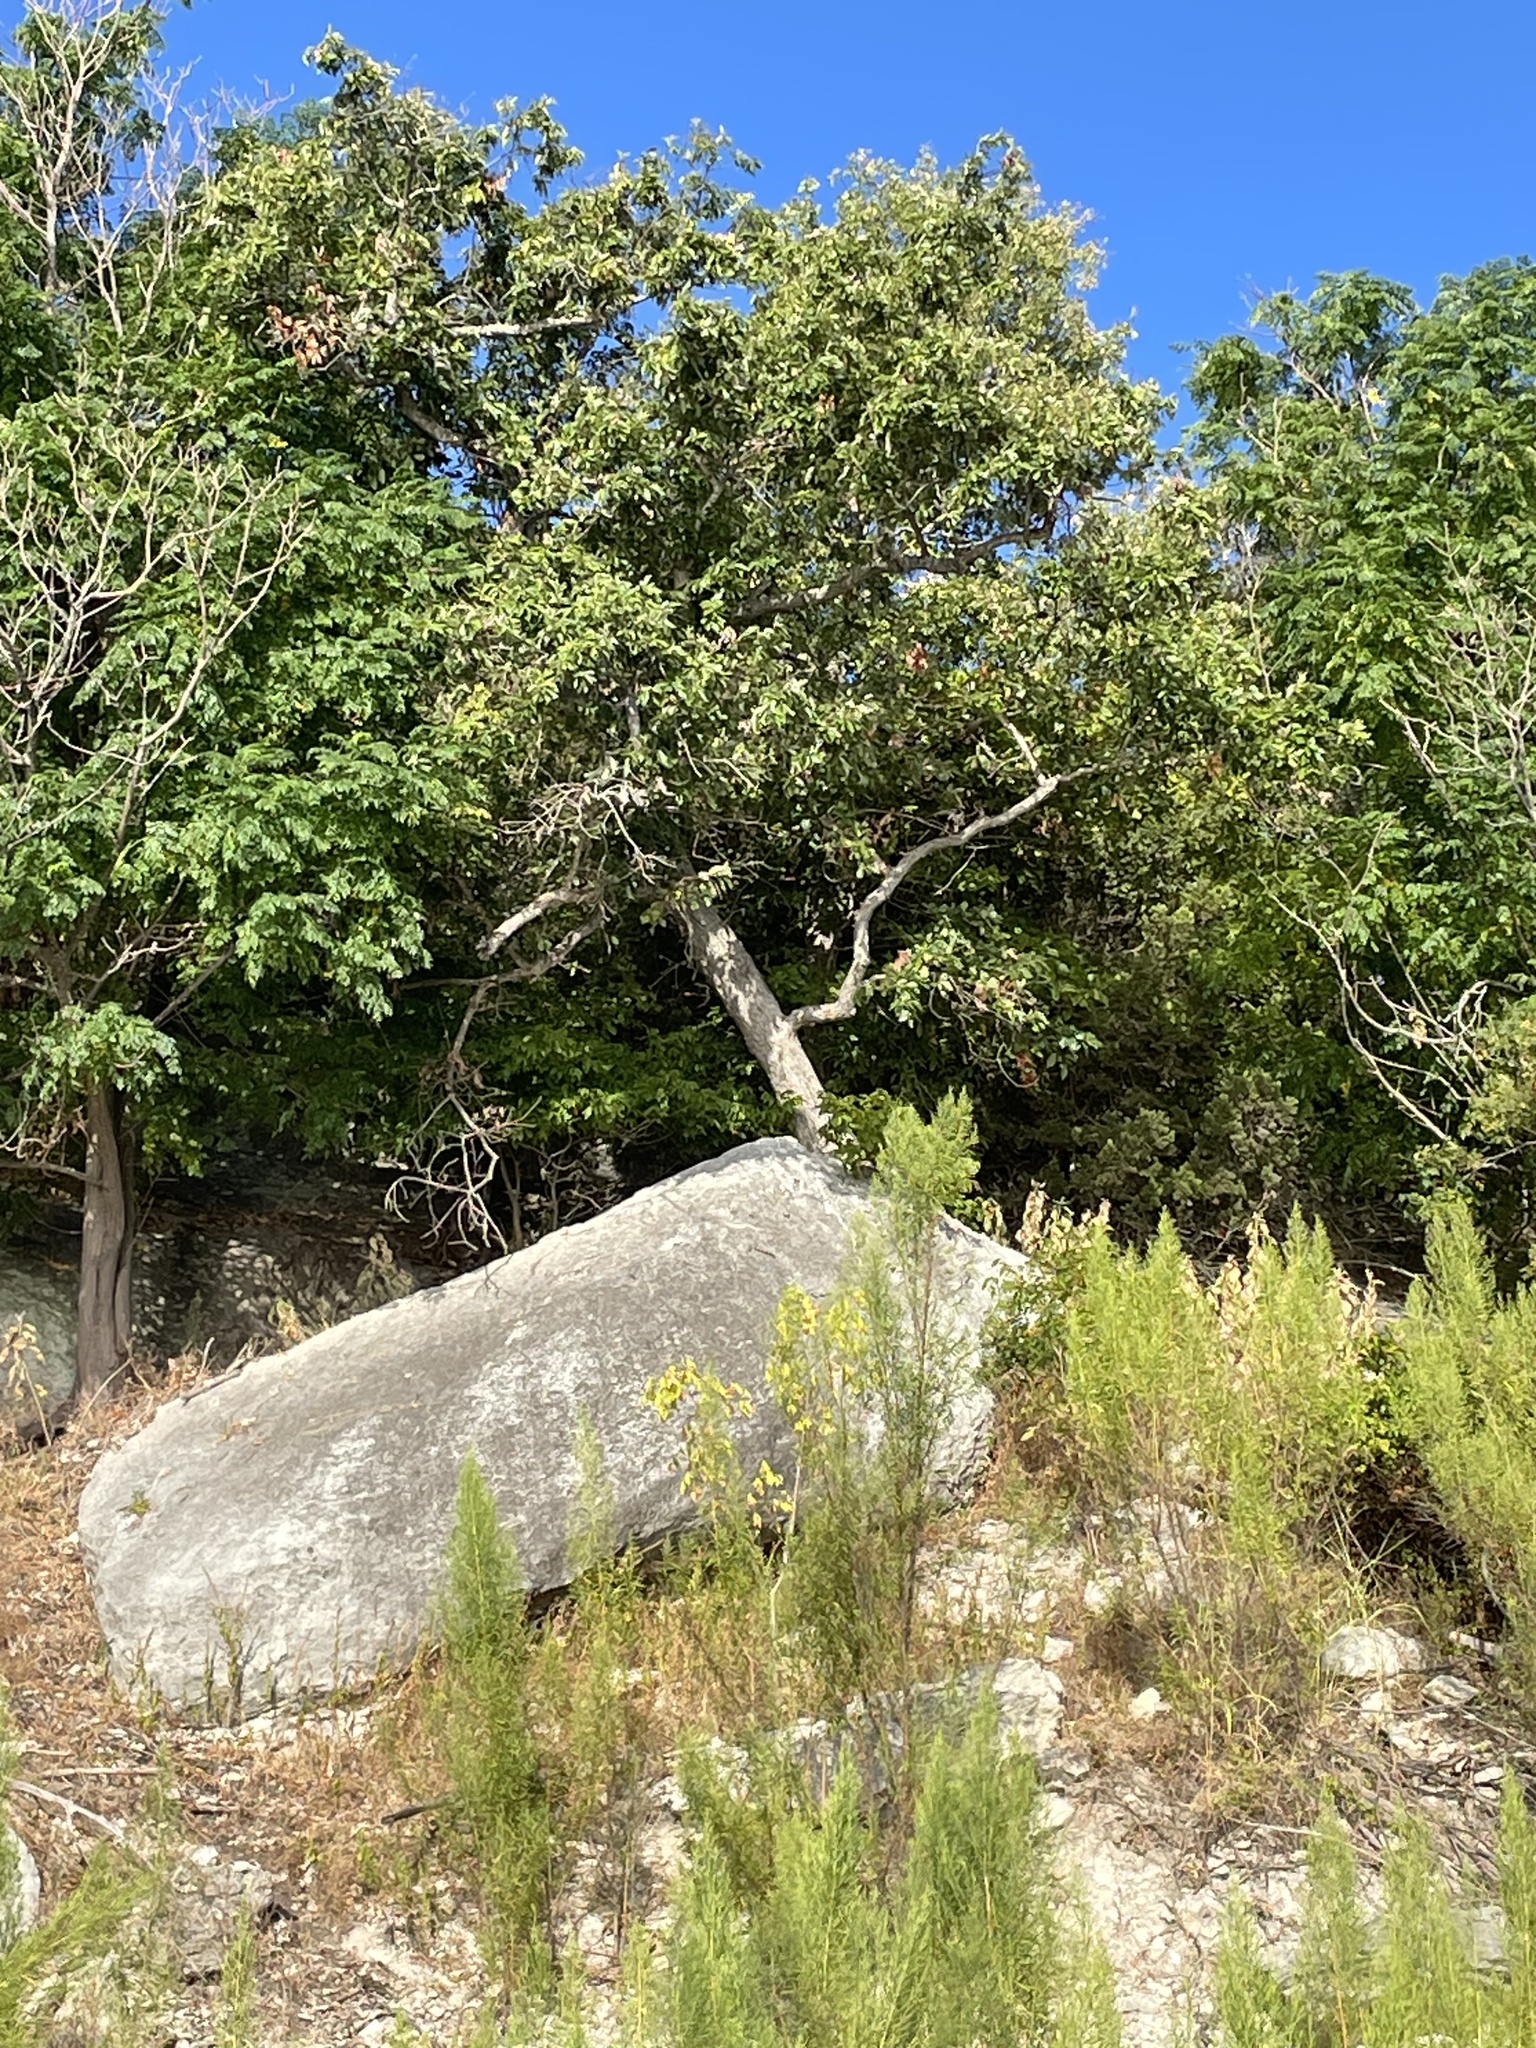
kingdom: Plantae
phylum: Tracheophyta
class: Magnoliopsida
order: Fagales
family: Fagaceae
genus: Quercus
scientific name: Quercus muehlenbergii
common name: Chinkapin oak
